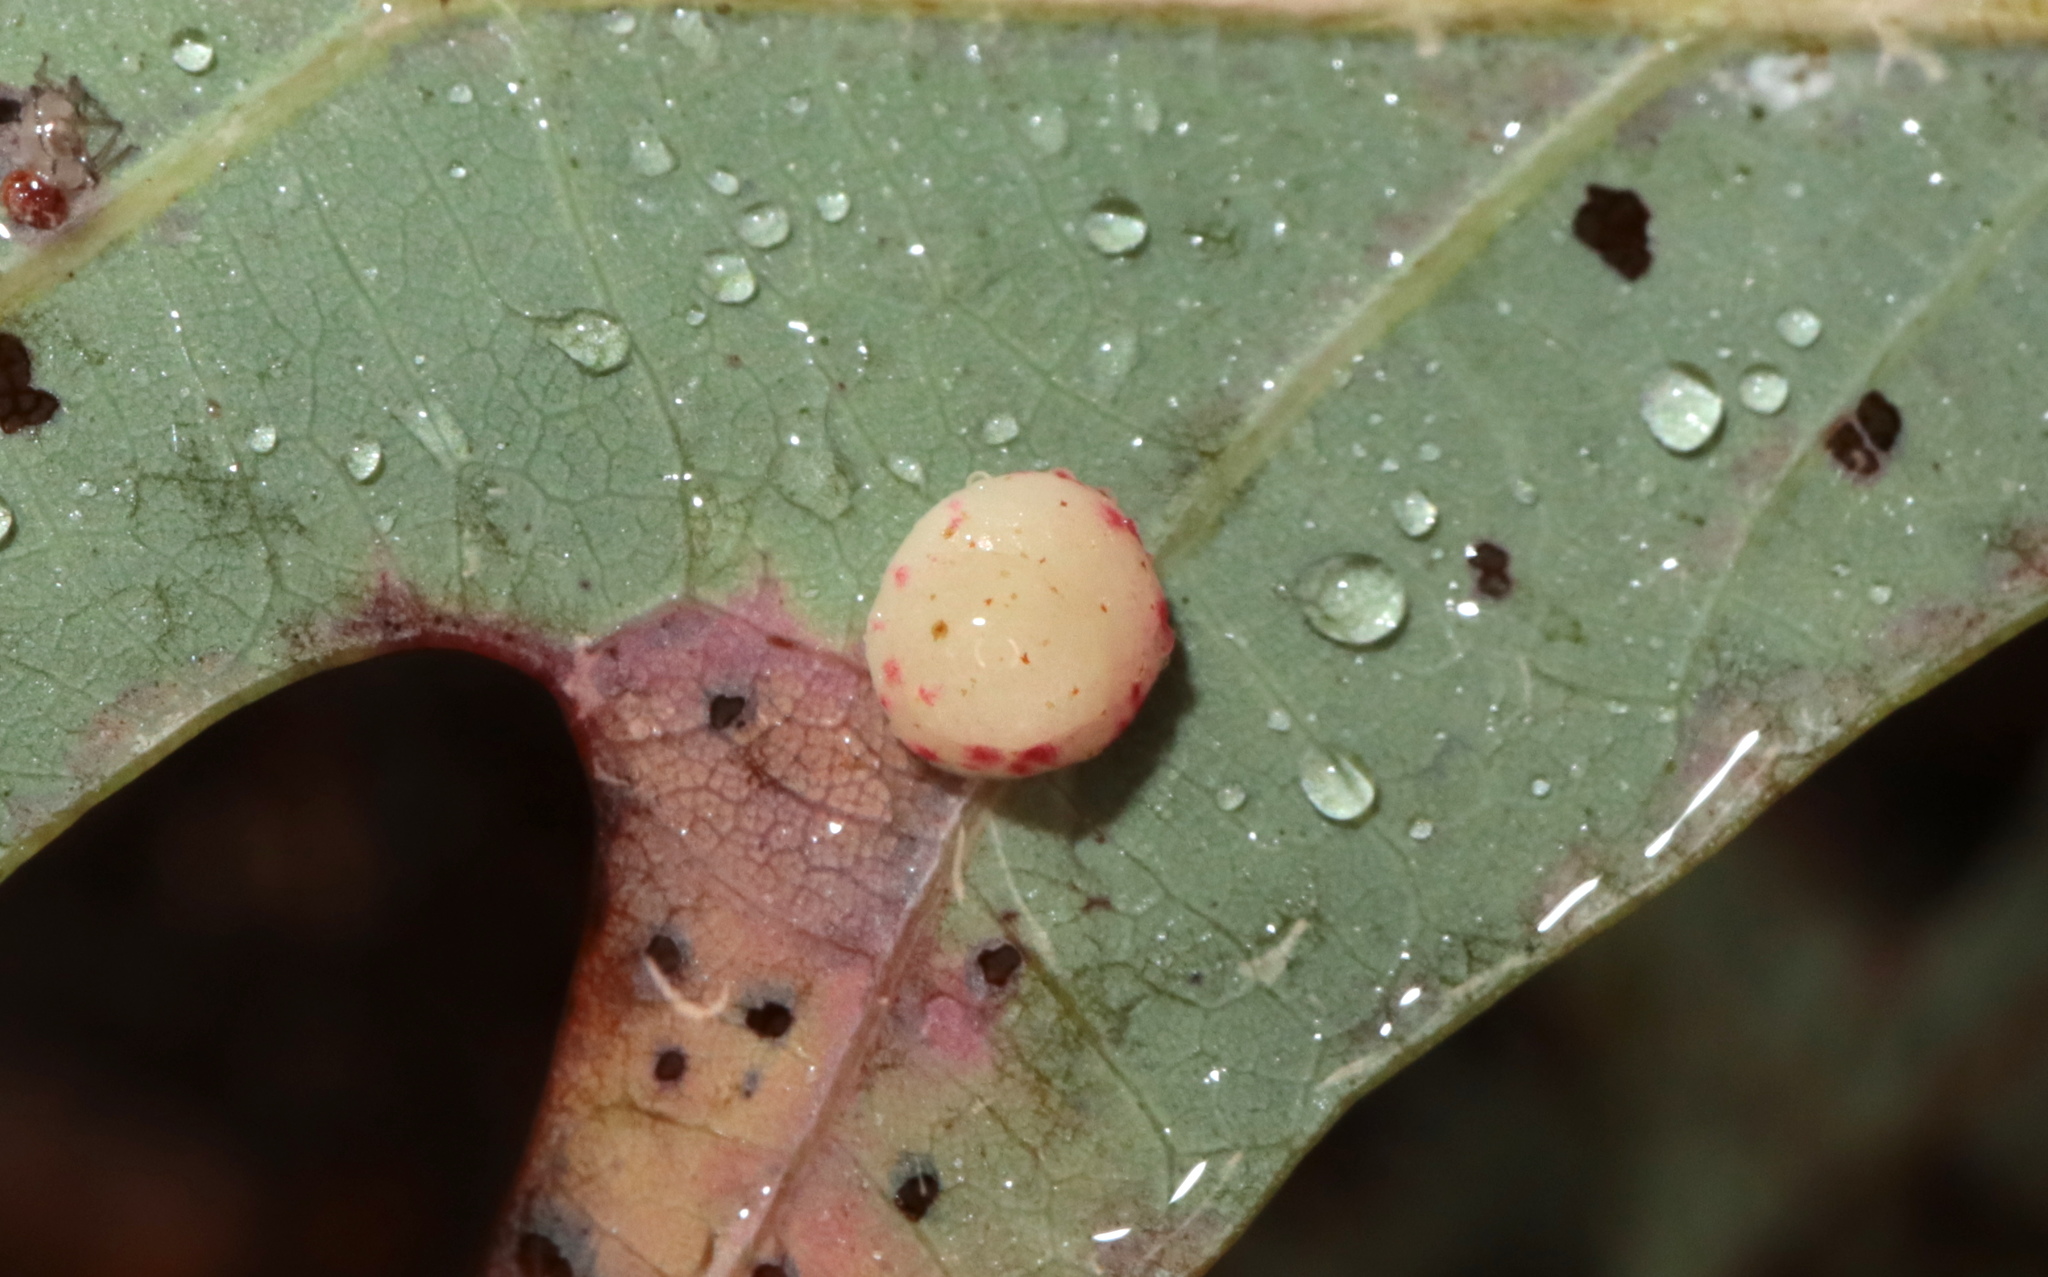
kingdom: Animalia
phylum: Arthropoda
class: Insecta
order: Hymenoptera
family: Cynipidae
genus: Phylloteras
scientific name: Phylloteras
